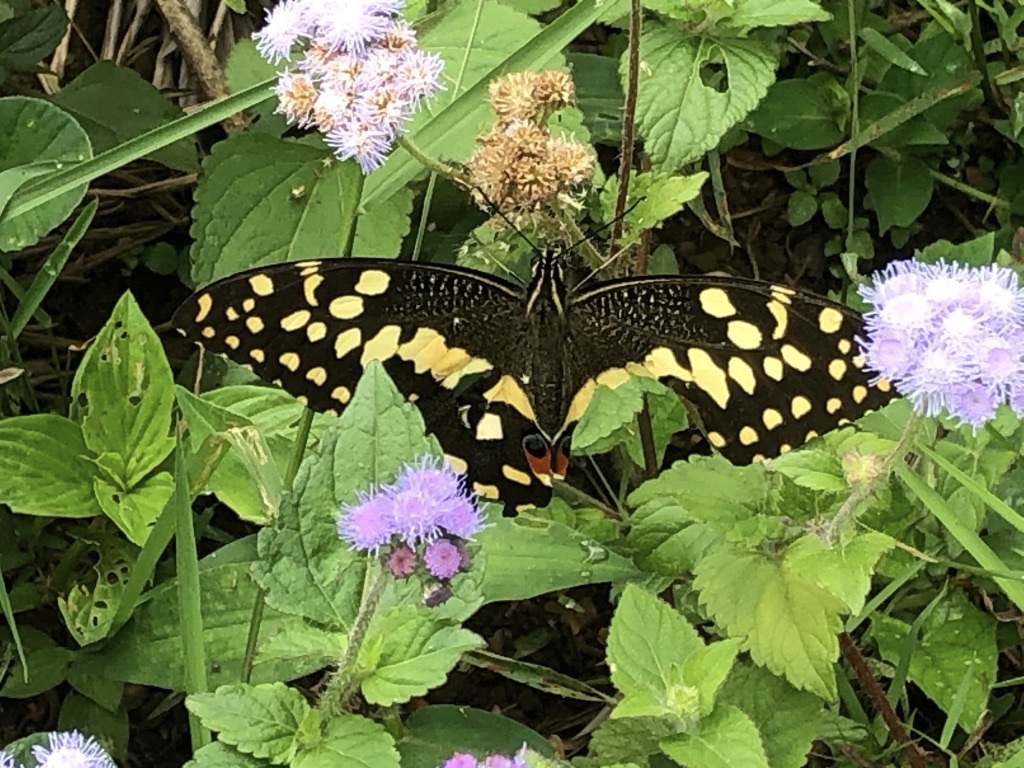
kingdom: Animalia
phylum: Arthropoda
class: Insecta
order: Lepidoptera
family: Papilionidae
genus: Papilio
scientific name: Papilio demodocus
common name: Christmas butterfly
